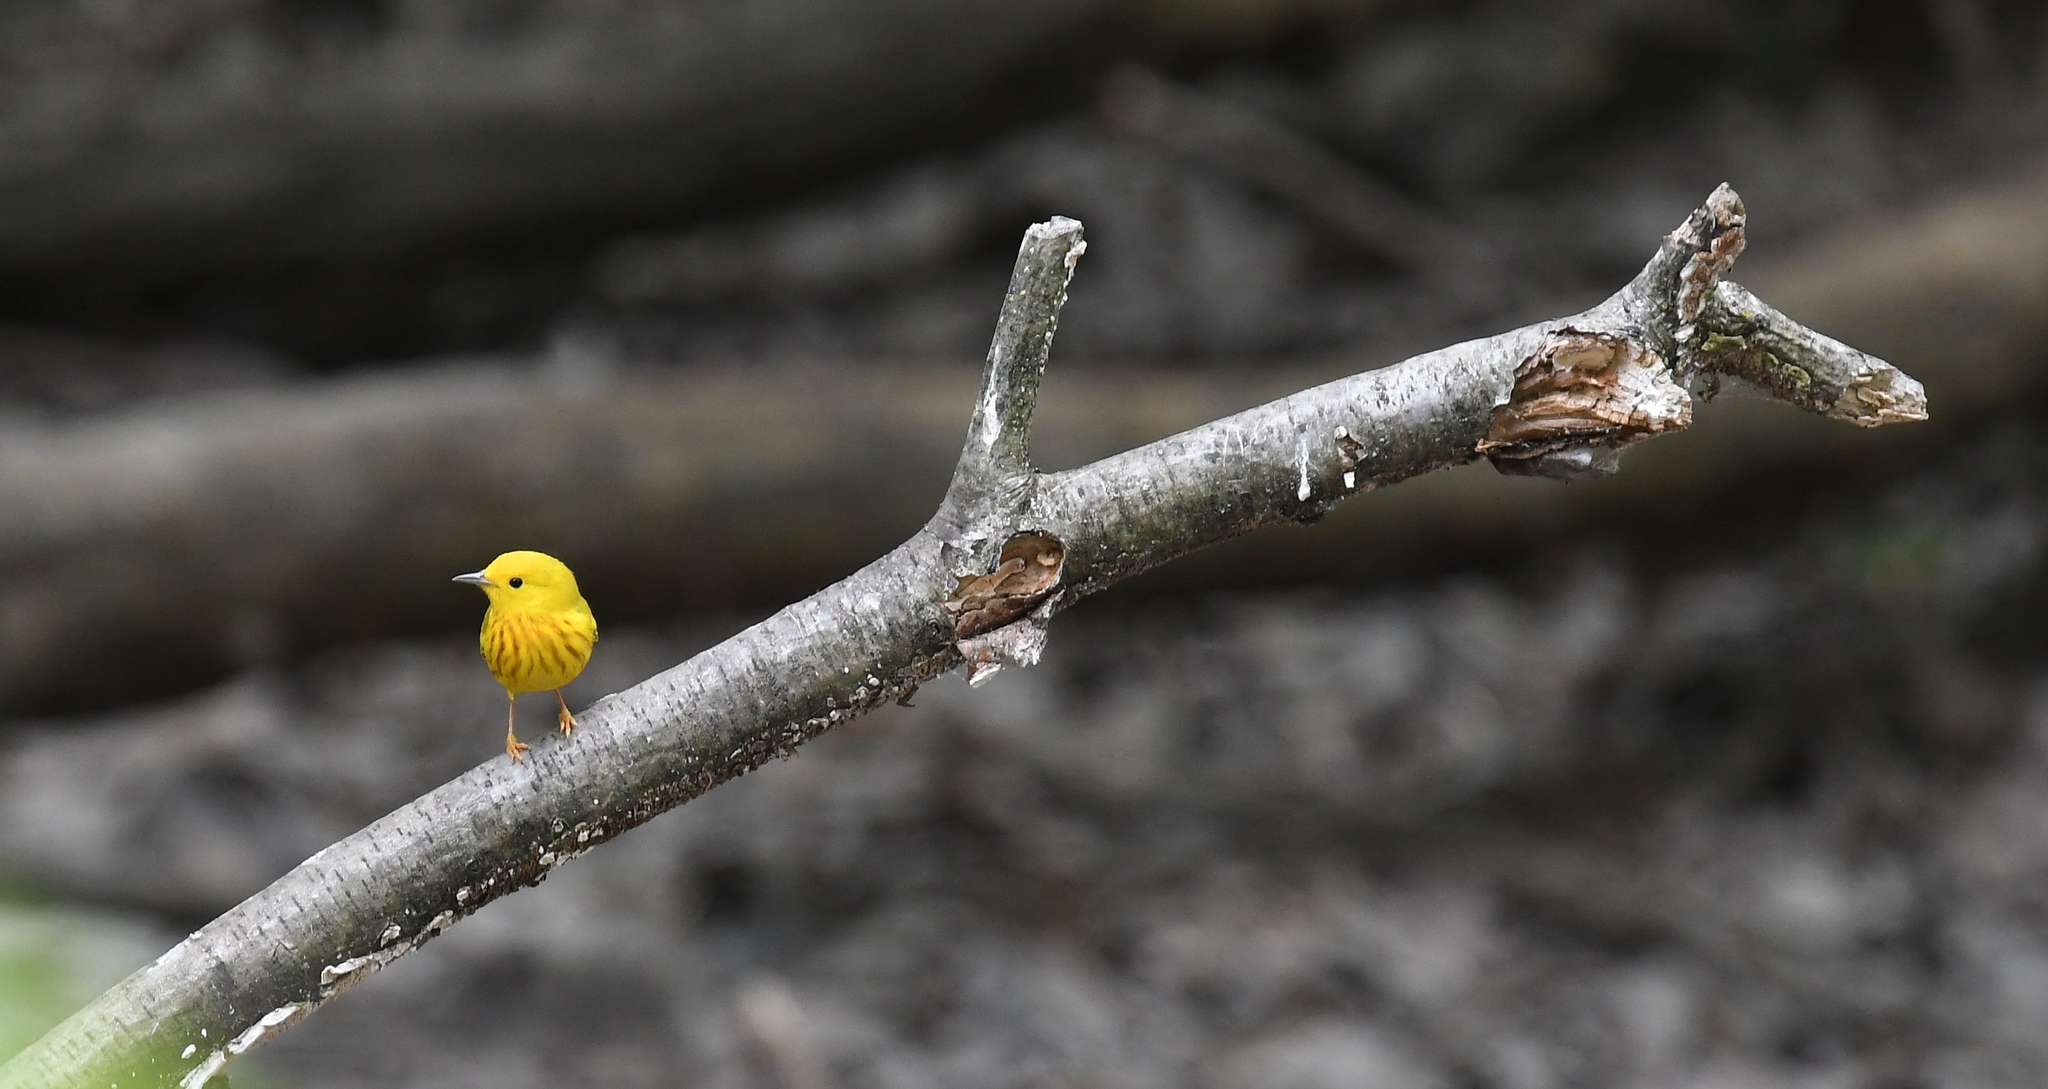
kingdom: Animalia
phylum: Chordata
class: Aves
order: Passeriformes
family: Parulidae
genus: Setophaga
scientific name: Setophaga petechia
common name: Yellow warbler
